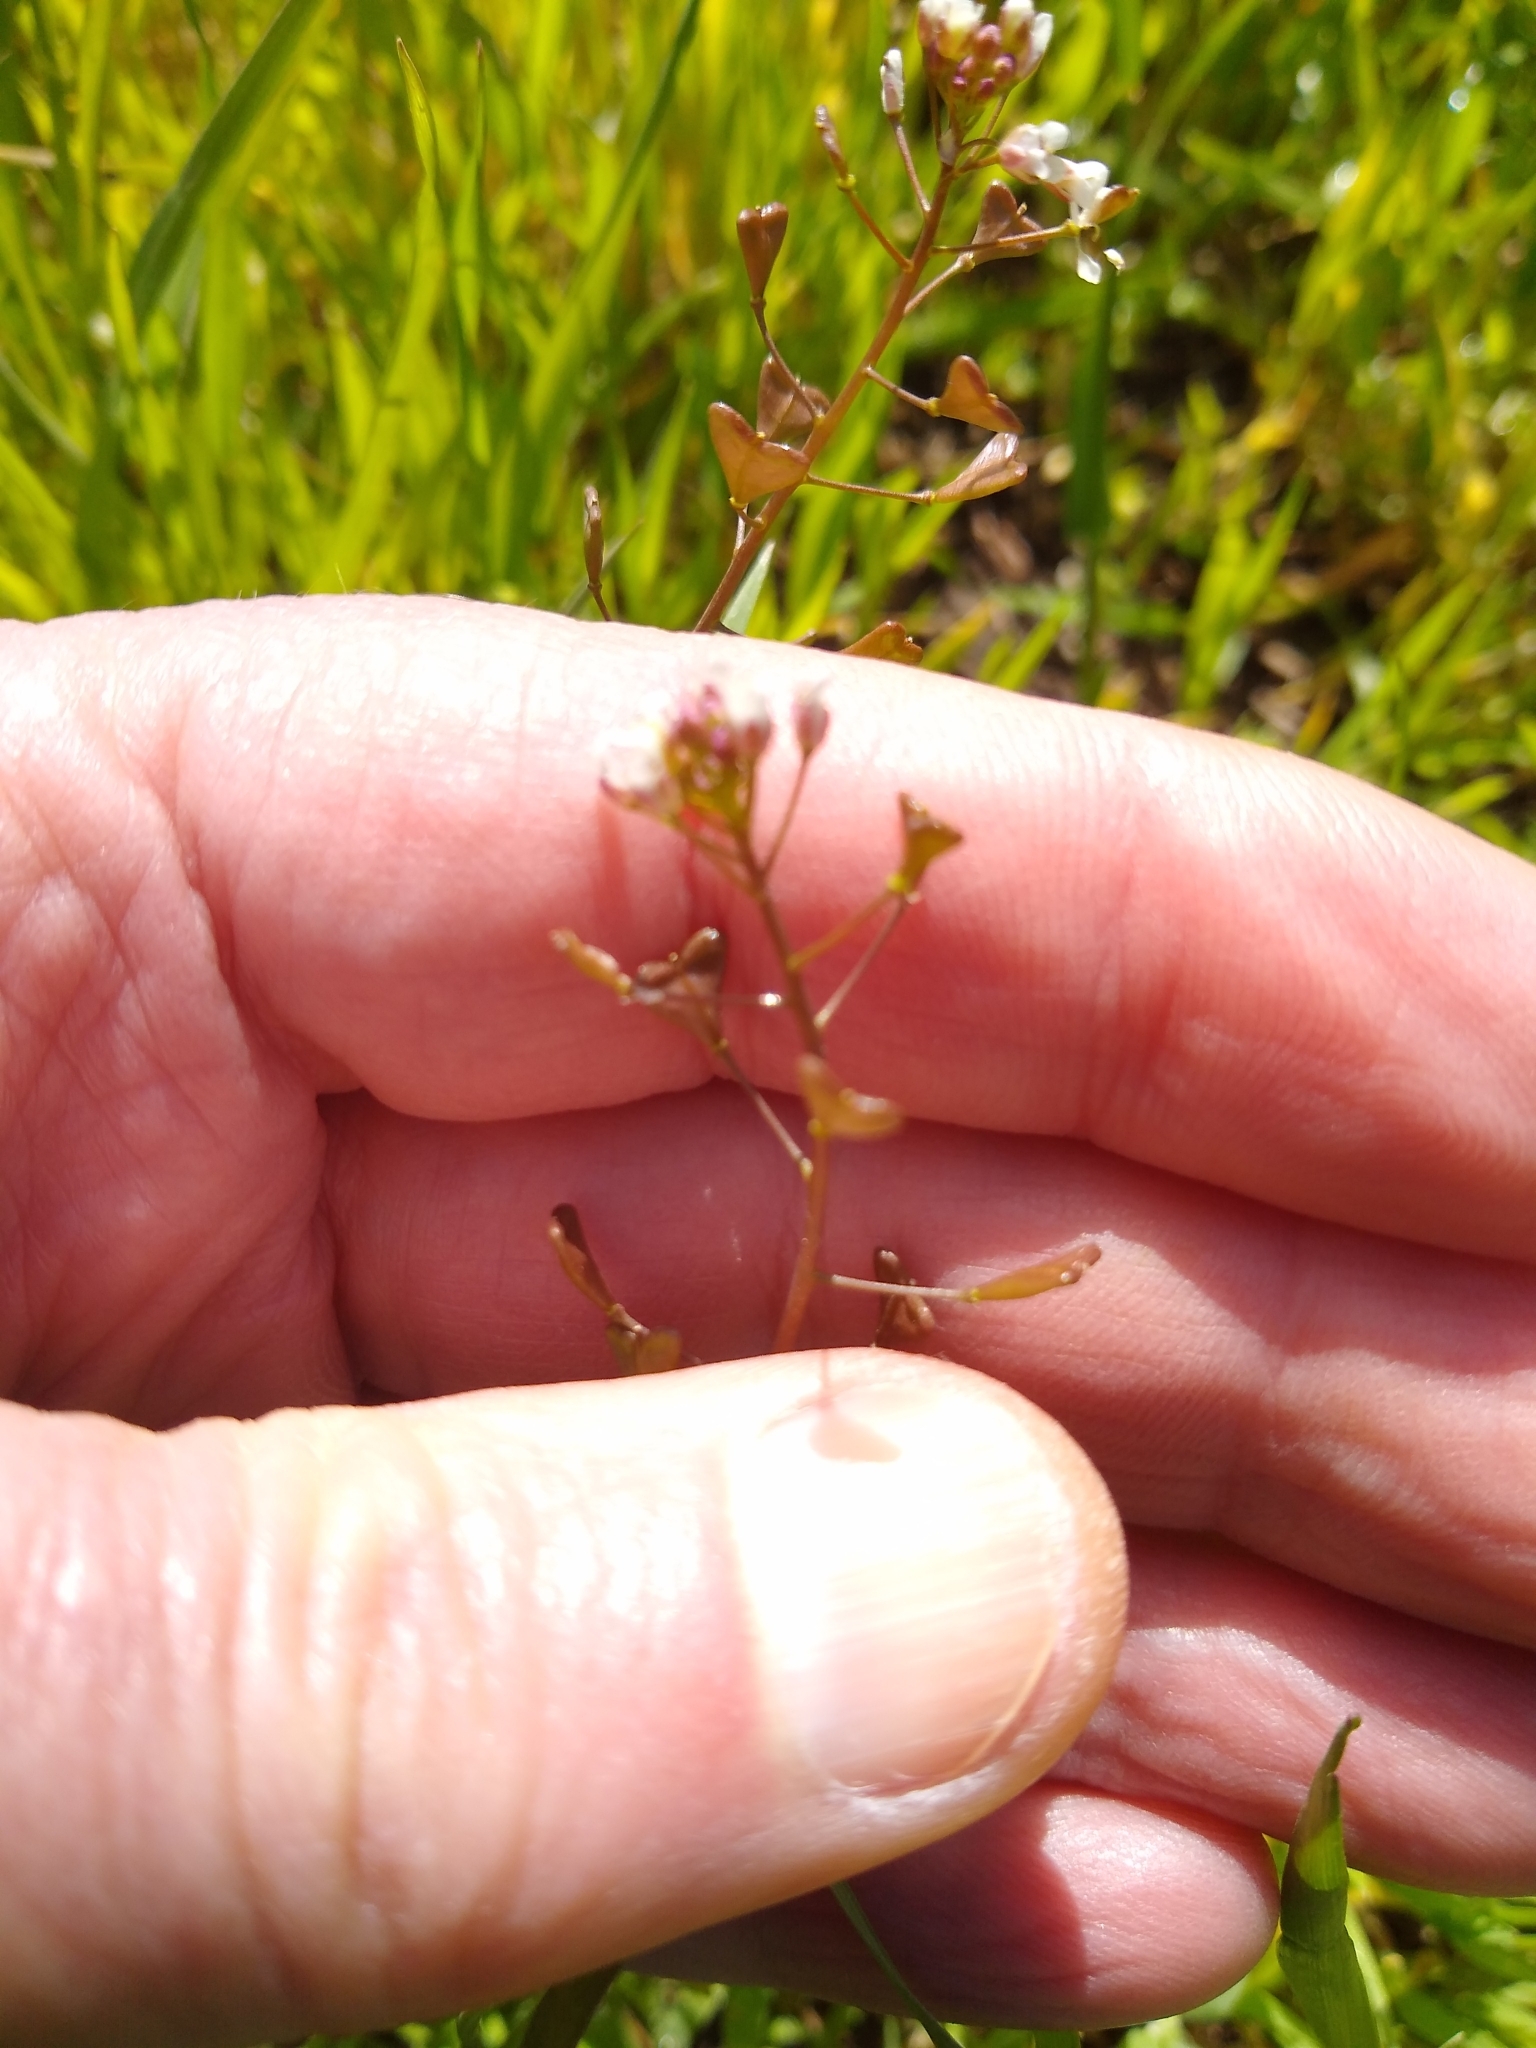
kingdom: Plantae
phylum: Tracheophyta
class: Magnoliopsida
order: Brassicales
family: Brassicaceae
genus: Capsella
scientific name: Capsella bursa-pastoris
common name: Shepherd's purse
